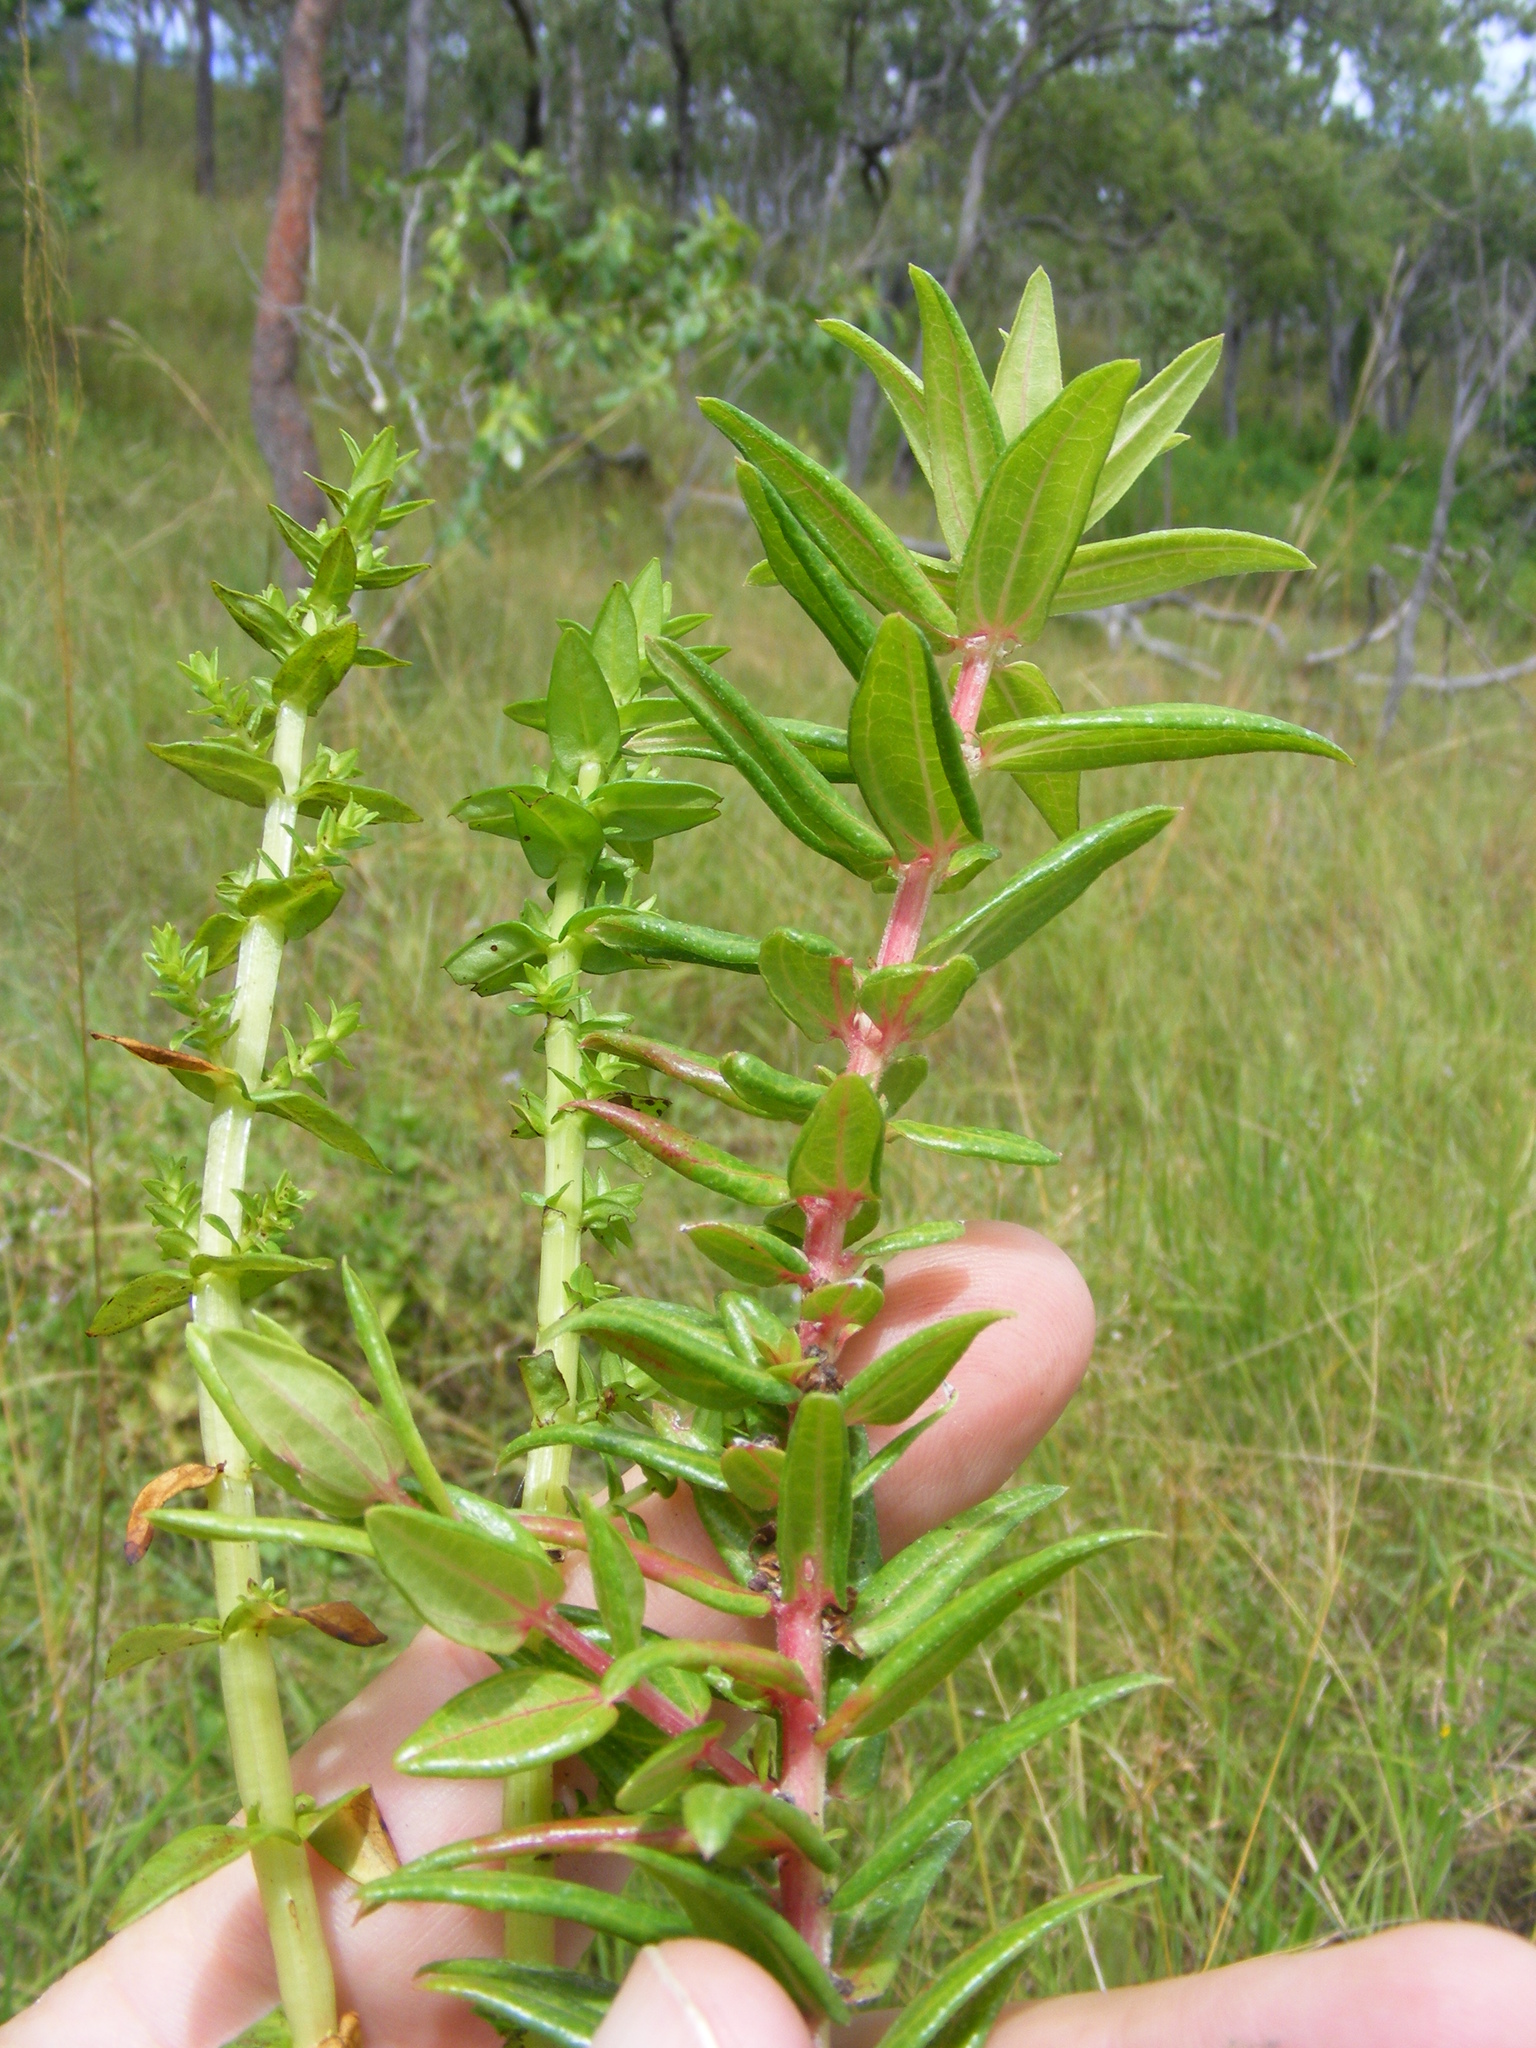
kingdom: Plantae
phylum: Tracheophyta
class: Magnoliopsida
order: Myrtales
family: Lythraceae
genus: Rotala
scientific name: Rotala tripartita
